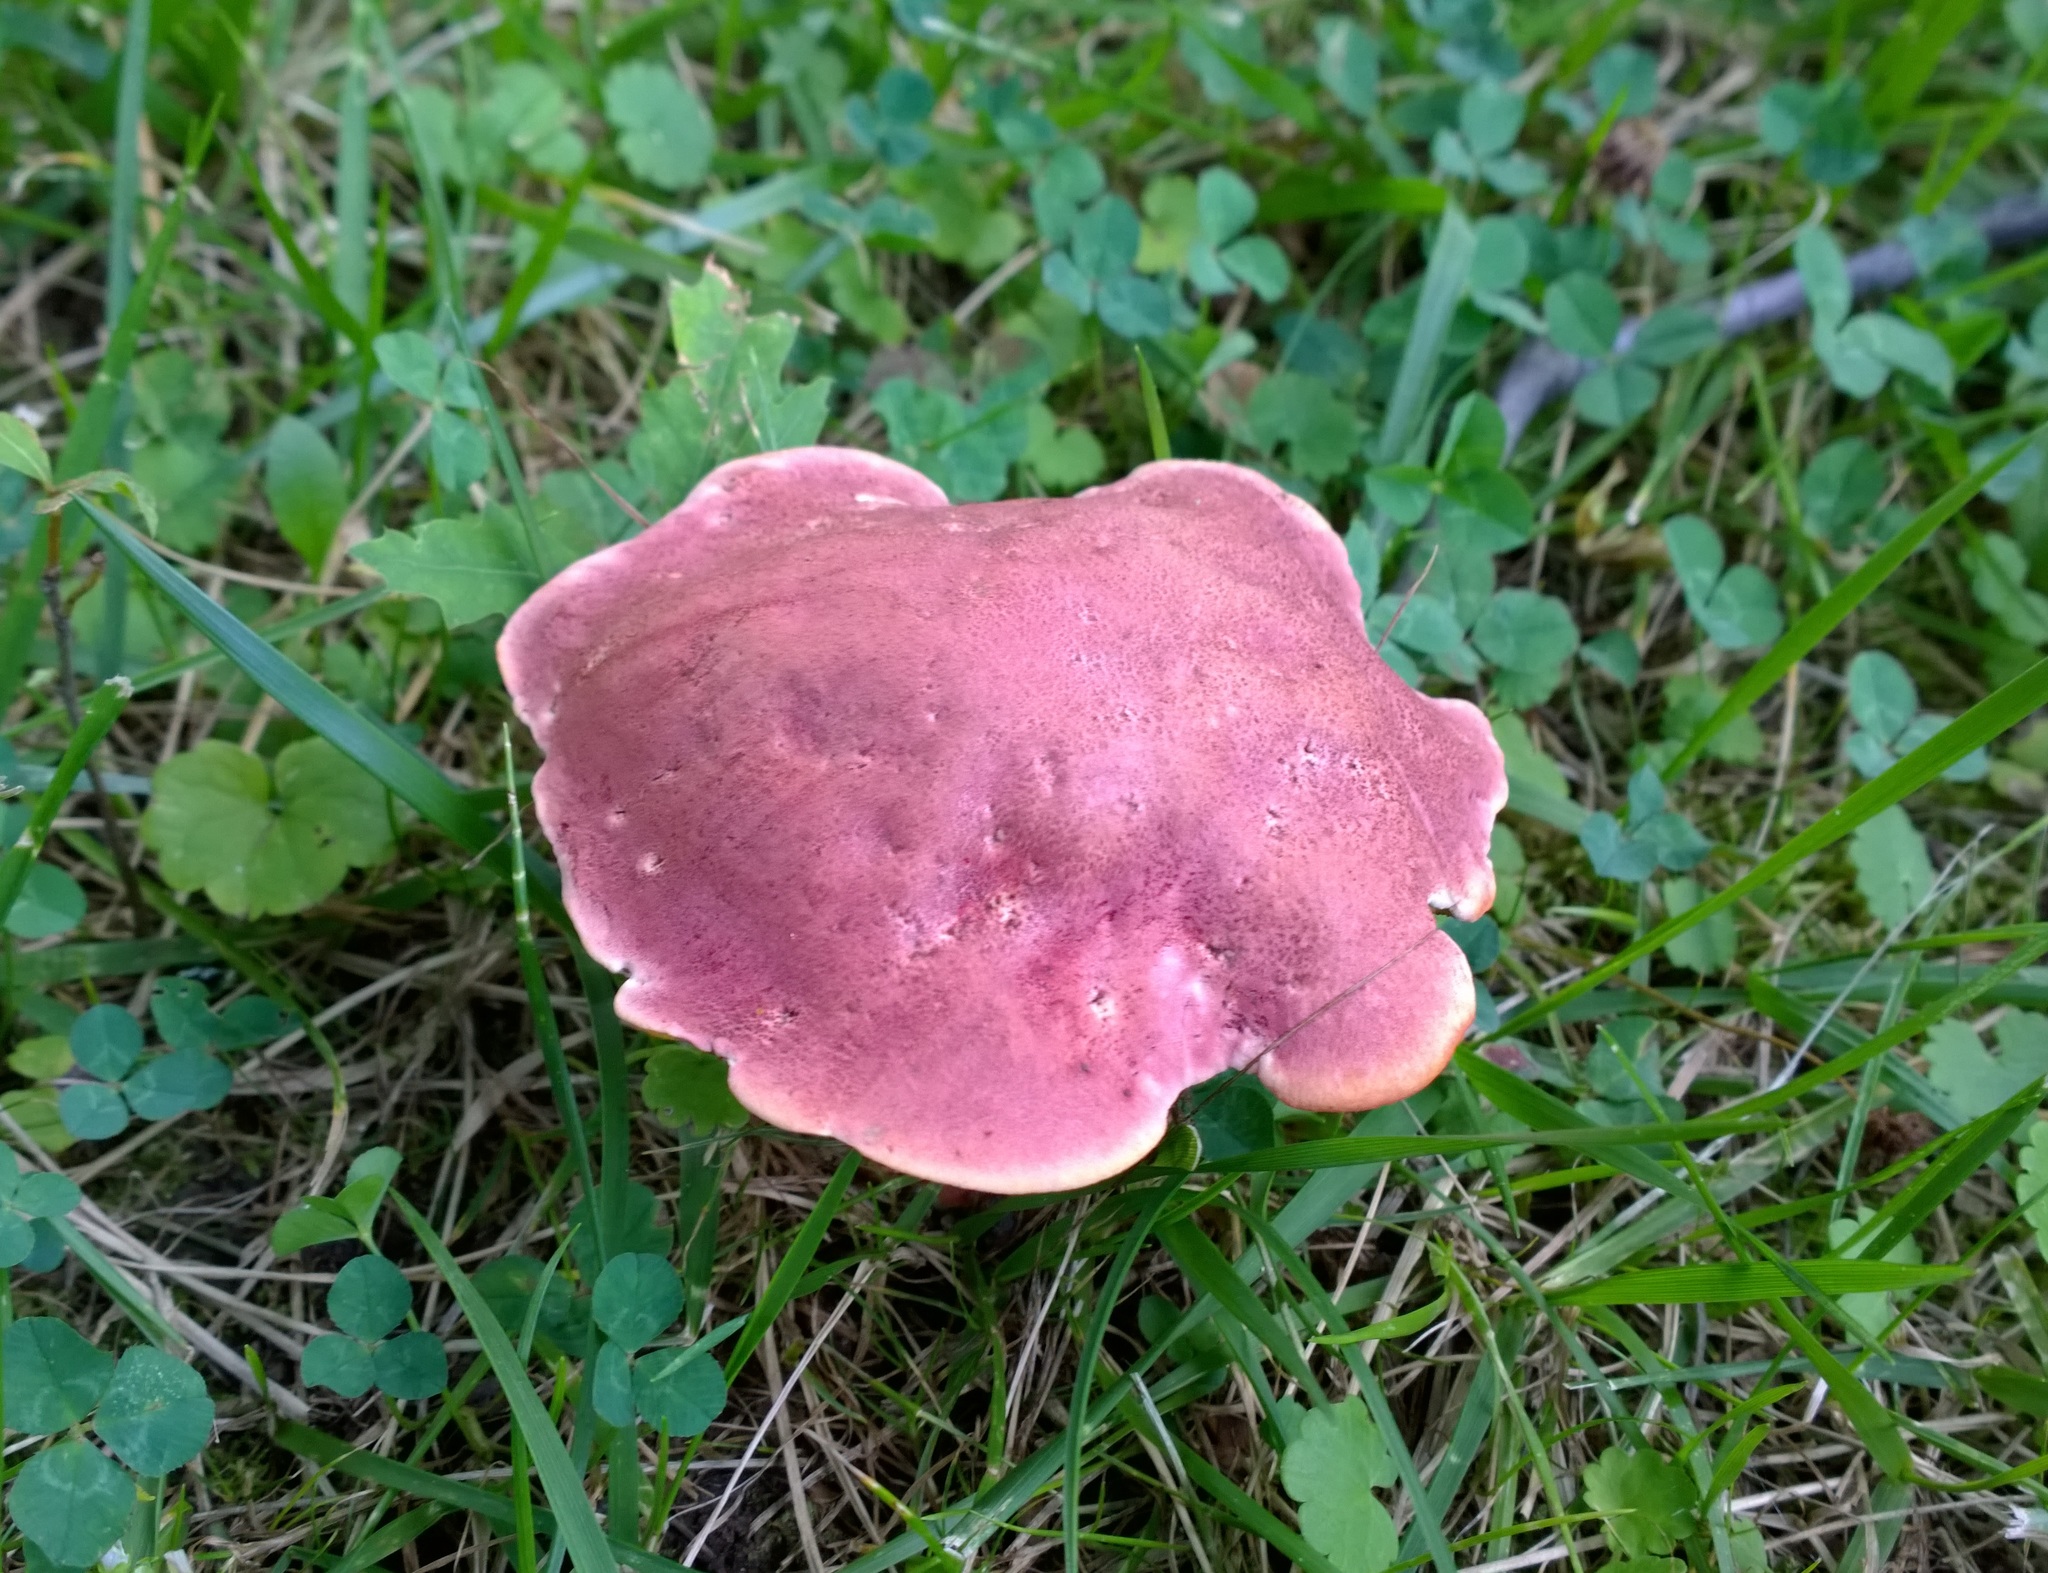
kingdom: Fungi
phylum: Basidiomycota
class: Agaricomycetes
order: Boletales
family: Boletaceae
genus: Rubroboletus
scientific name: Rubroboletus rhodosanguineus
